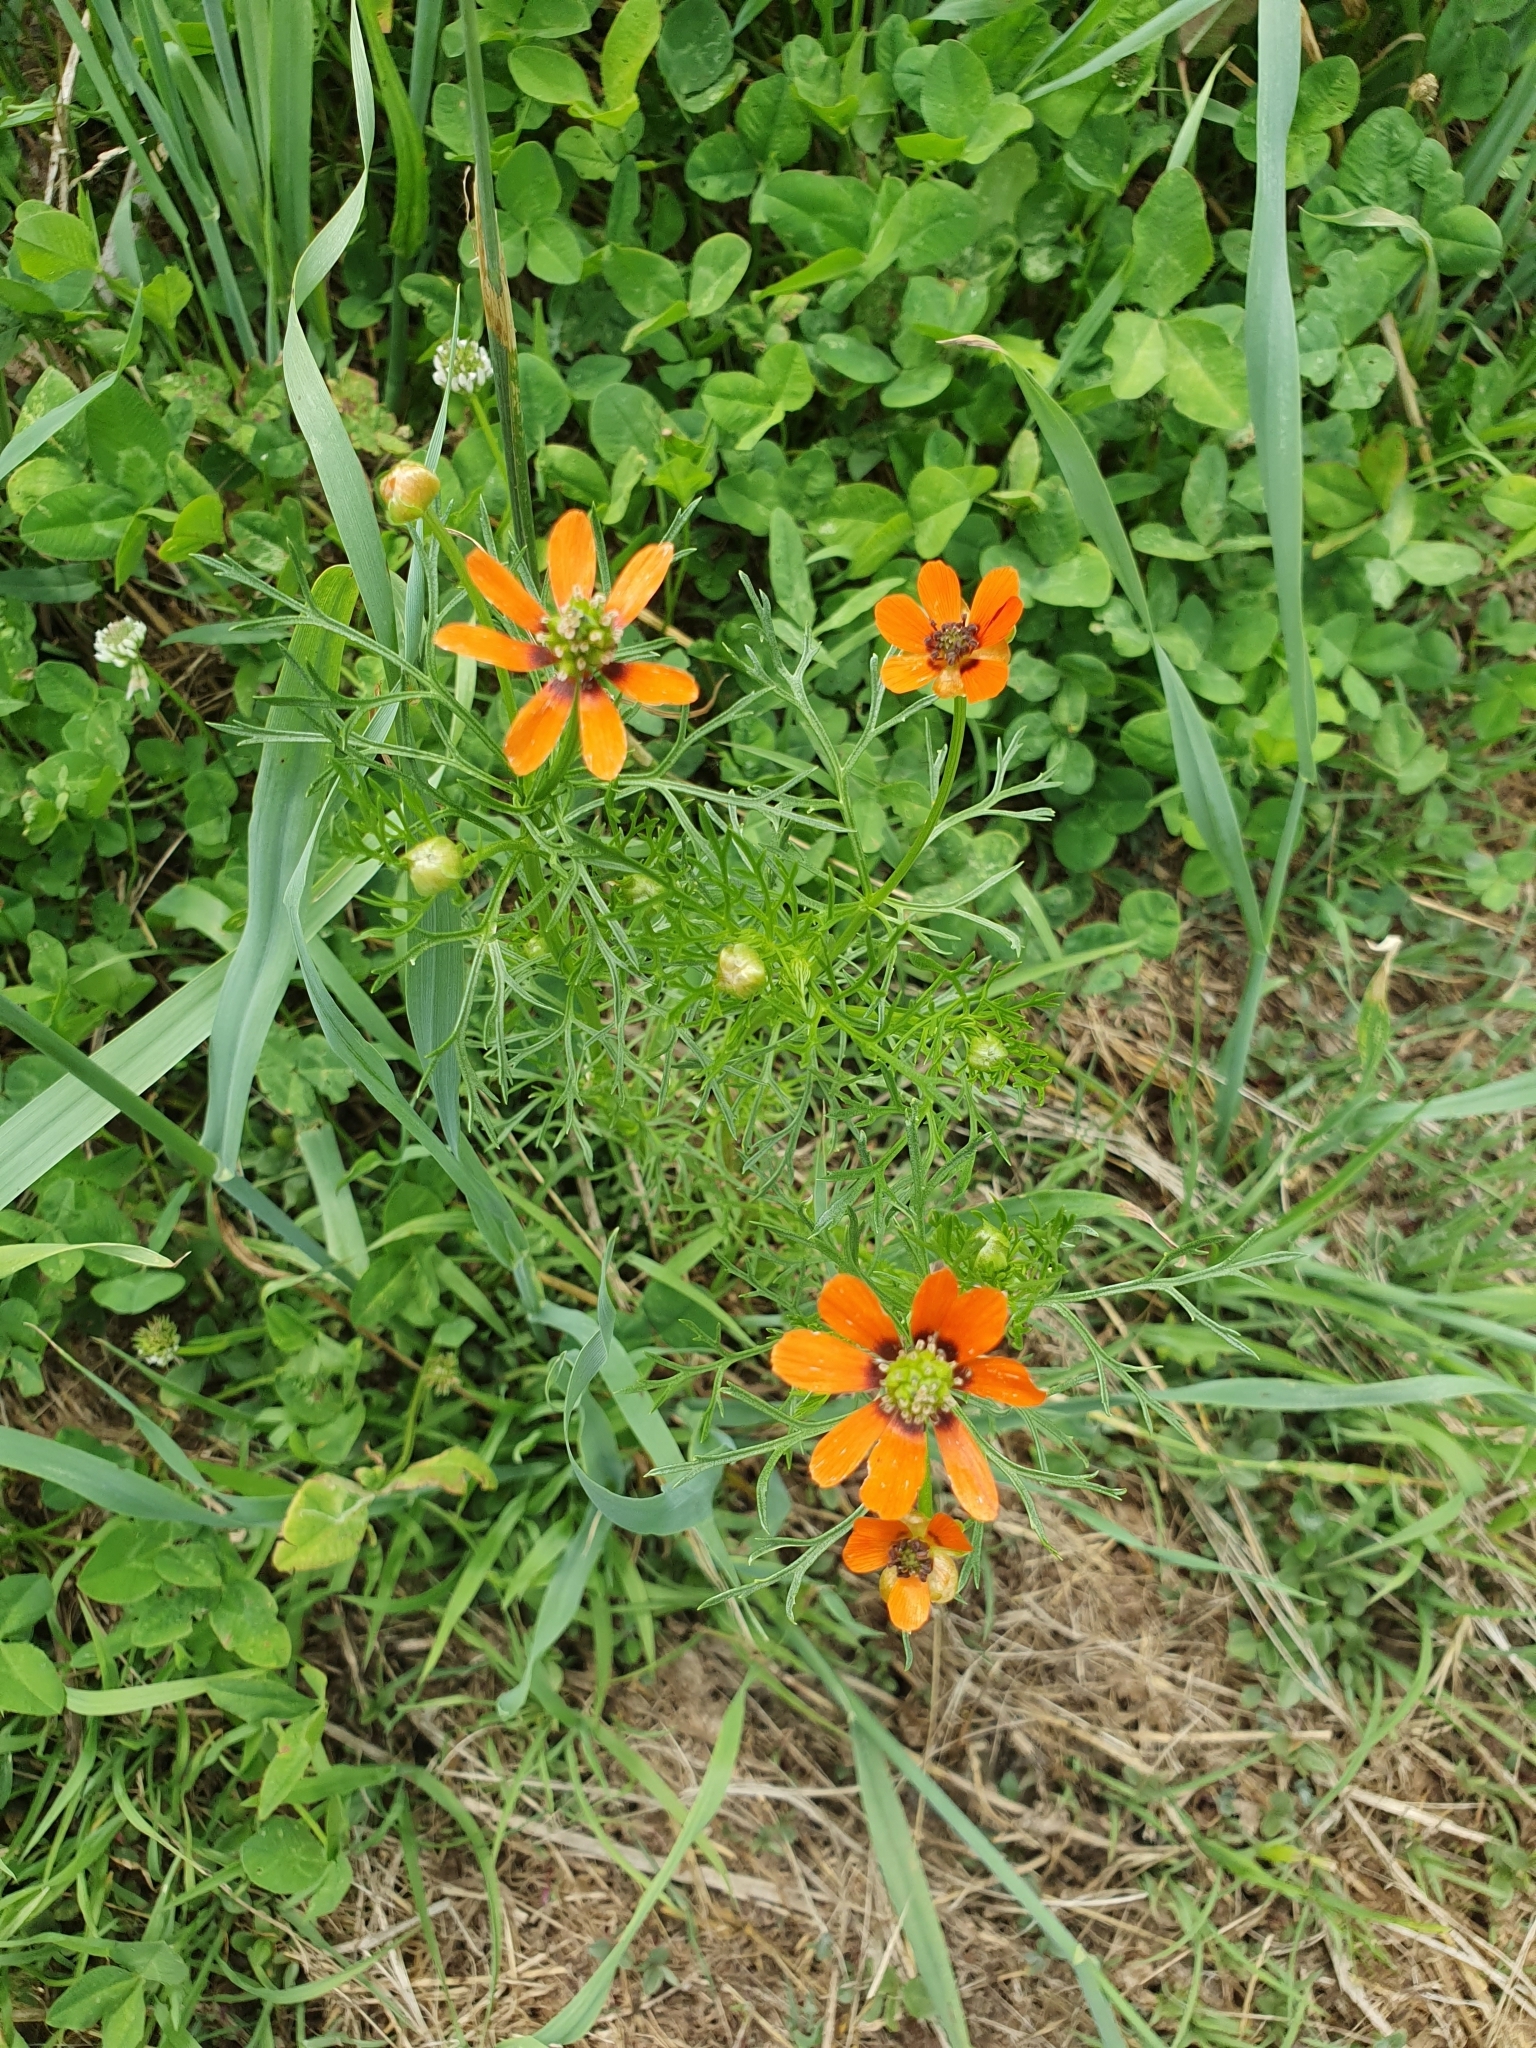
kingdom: Plantae
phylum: Tracheophyta
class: Magnoliopsida
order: Ranunculales
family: Ranunculaceae
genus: Adonis
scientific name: Adonis aestivalis
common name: Summer pheasant's-eye
